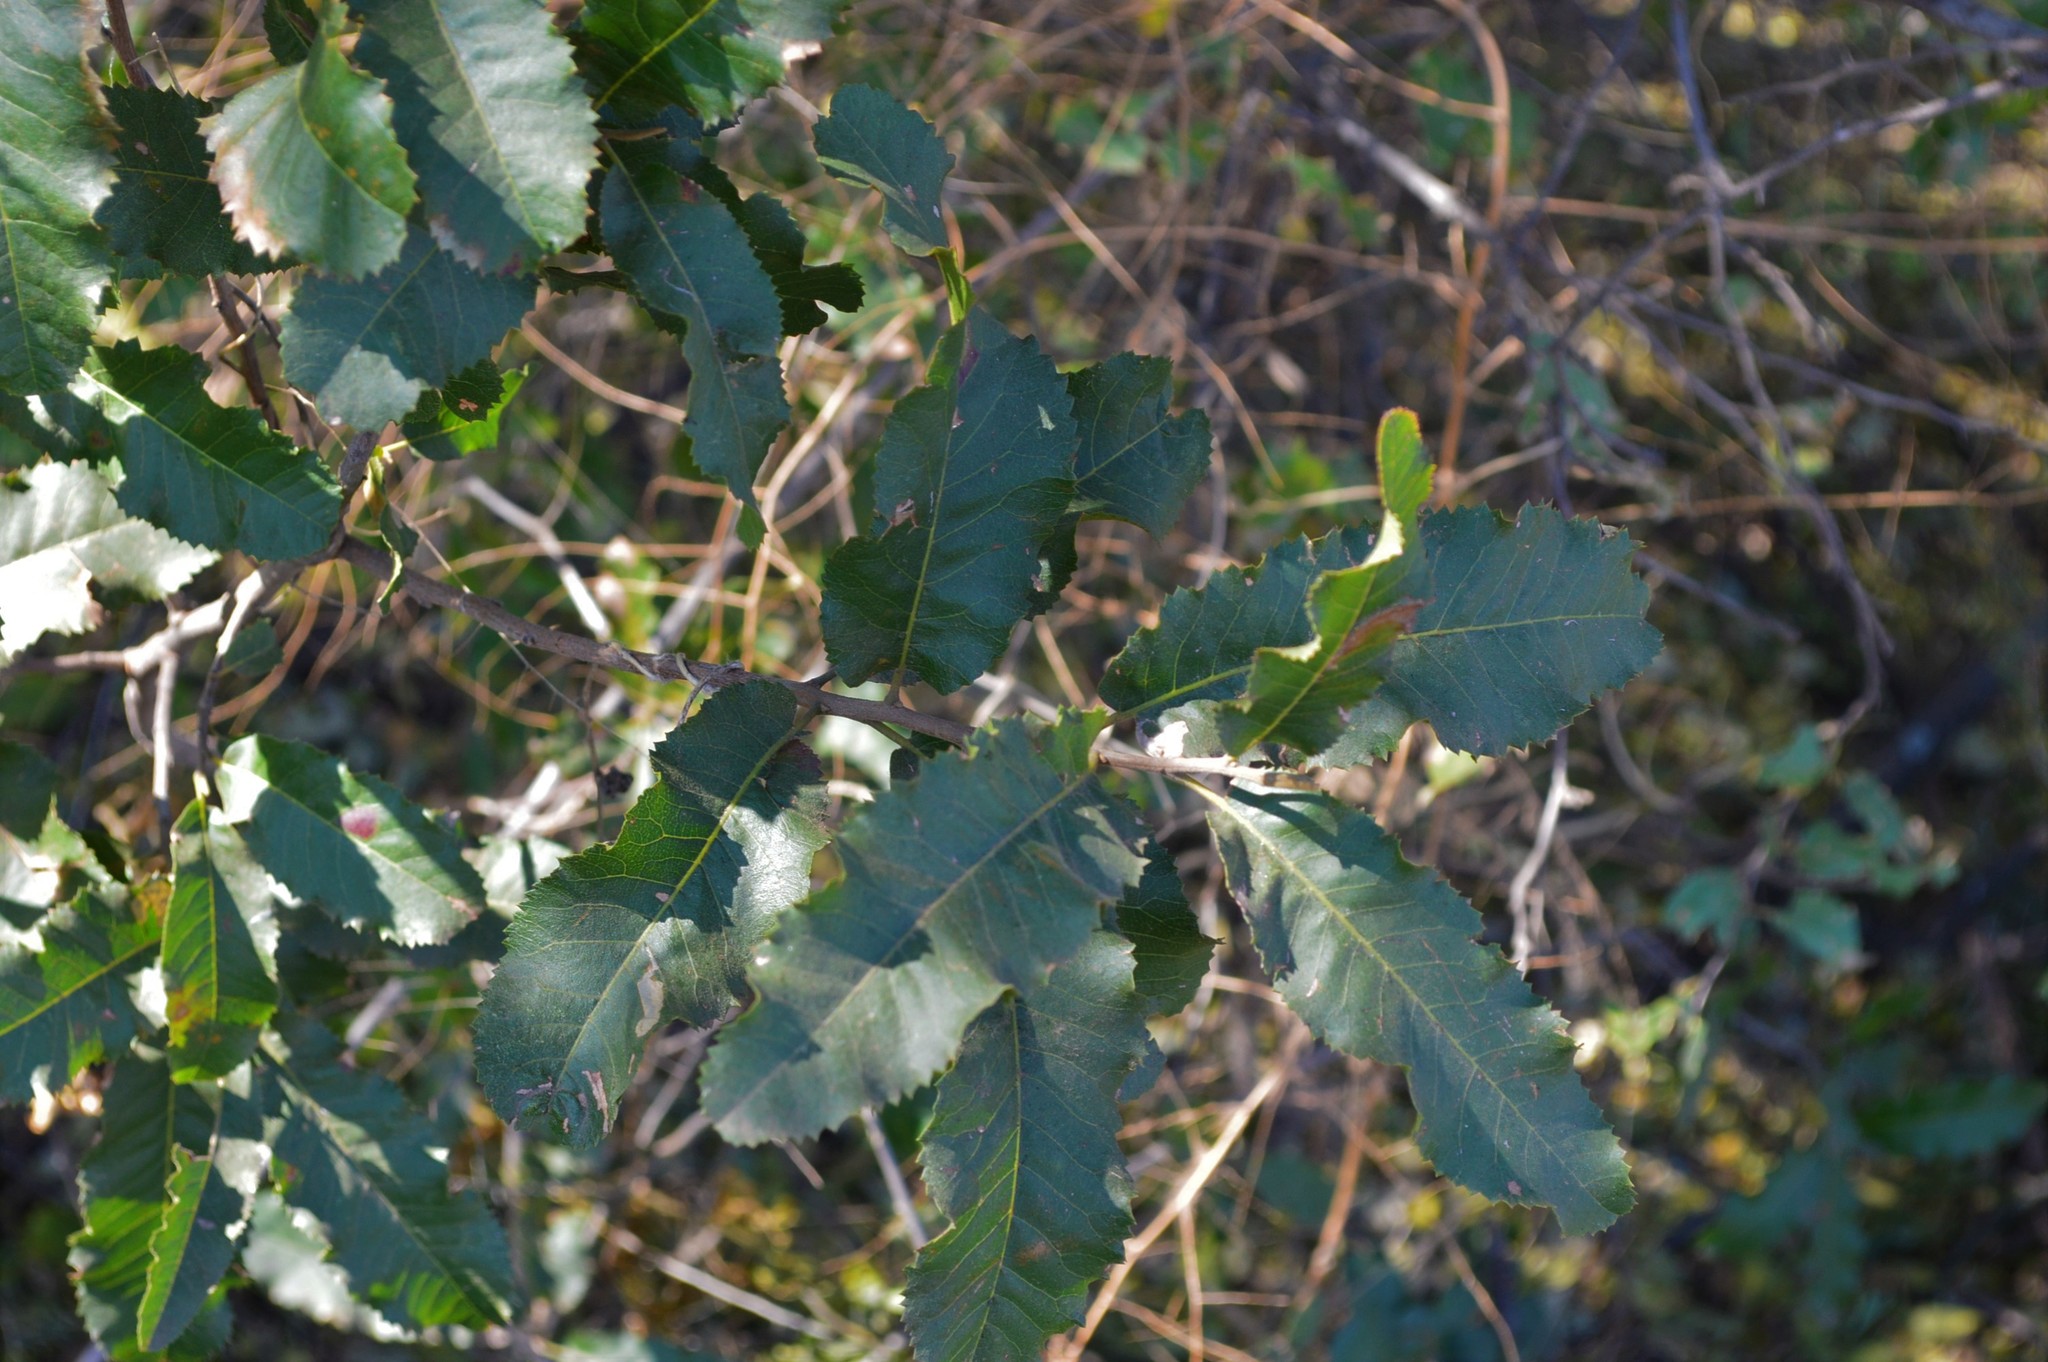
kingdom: Plantae
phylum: Tracheophyta
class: Magnoliopsida
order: Sapindales
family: Sapindaceae
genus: Pappea
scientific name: Pappea capensis
